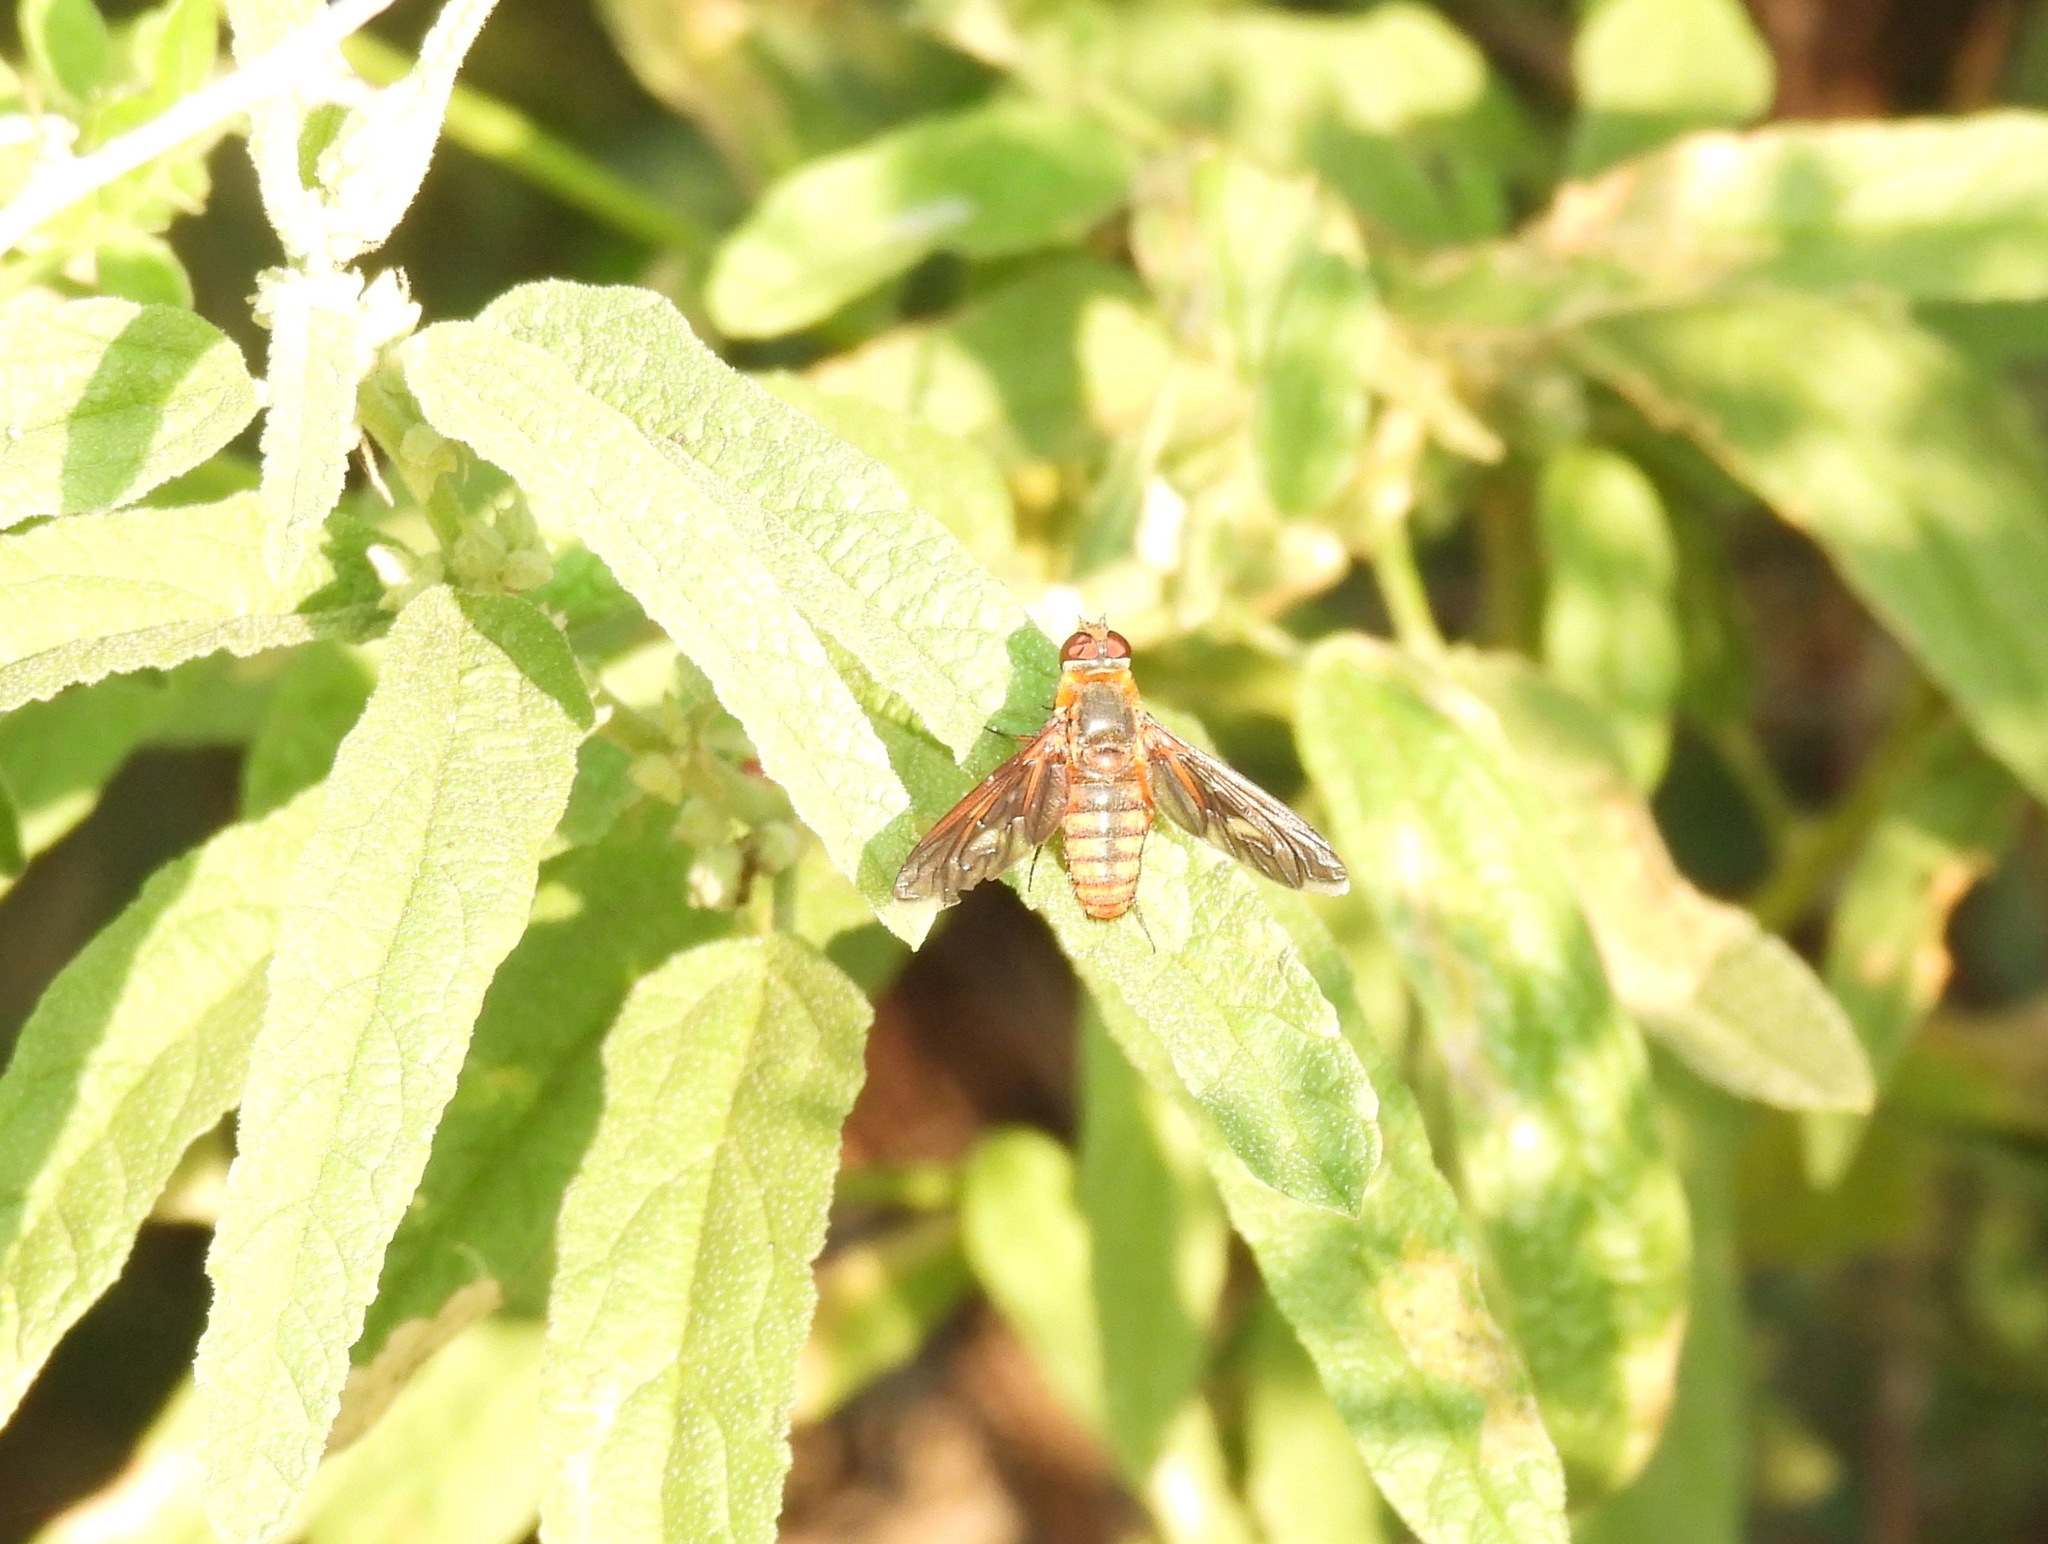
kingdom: Animalia
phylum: Arthropoda
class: Insecta
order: Diptera
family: Bombyliidae
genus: Poecilanthrax
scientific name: Poecilanthrax effrenus
